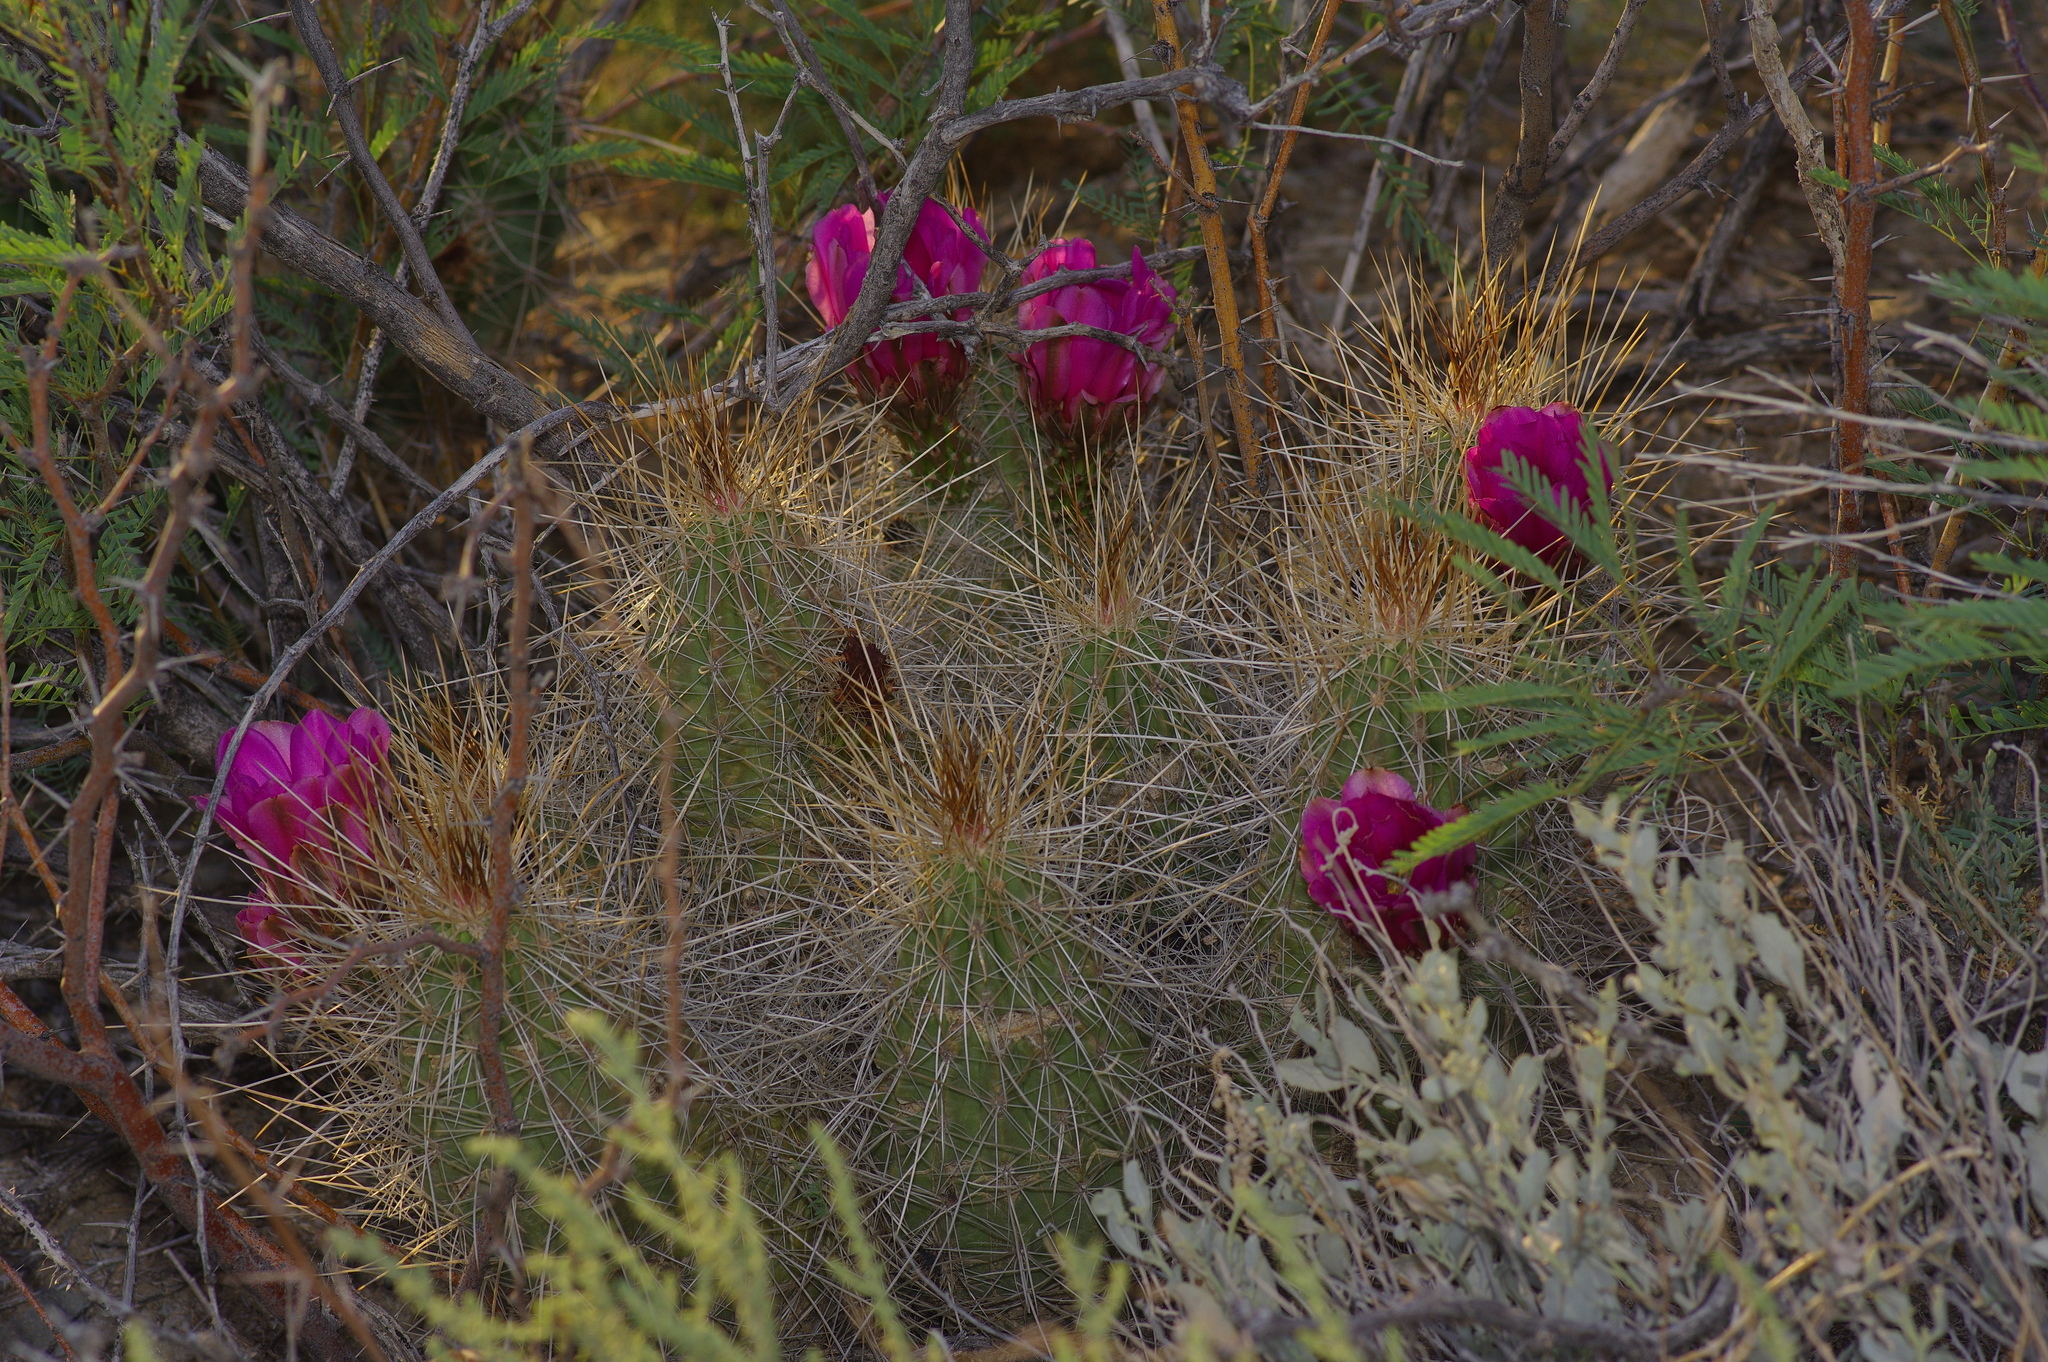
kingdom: Plantae
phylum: Tracheophyta
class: Magnoliopsida
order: Caryophyllales
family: Cactaceae
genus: Echinocereus
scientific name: Echinocereus stramineus
